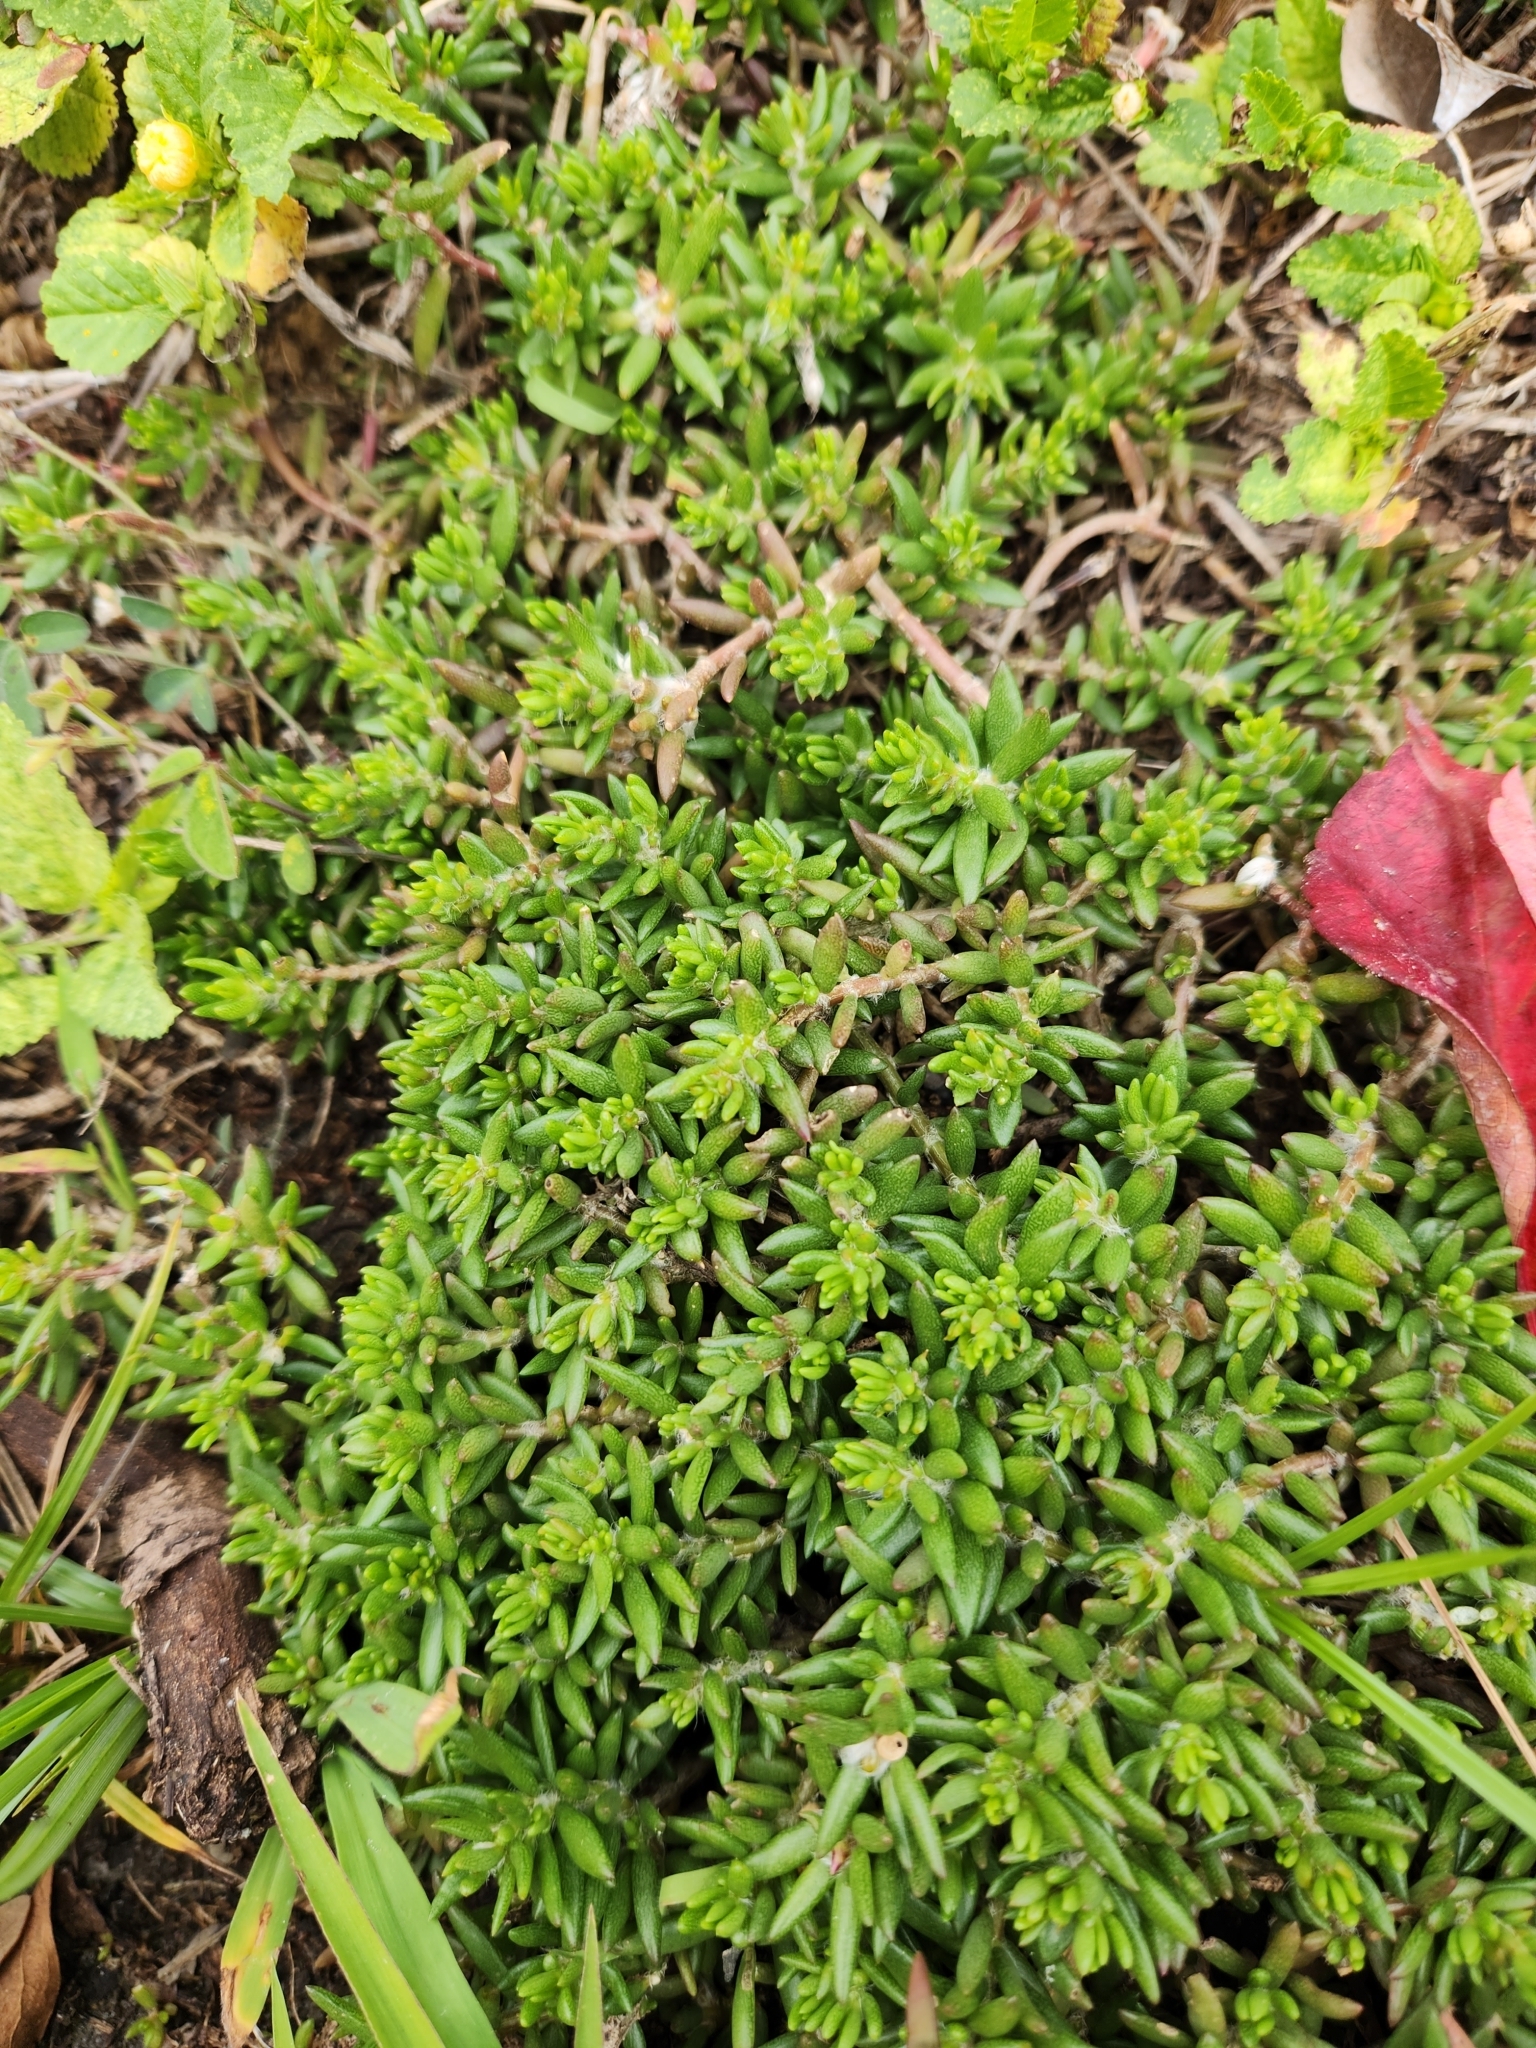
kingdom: Plantae
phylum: Tracheophyta
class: Magnoliopsida
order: Caryophyllales
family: Portulacaceae
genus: Portulaca
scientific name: Portulaca pilosa
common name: Kiss me quick
